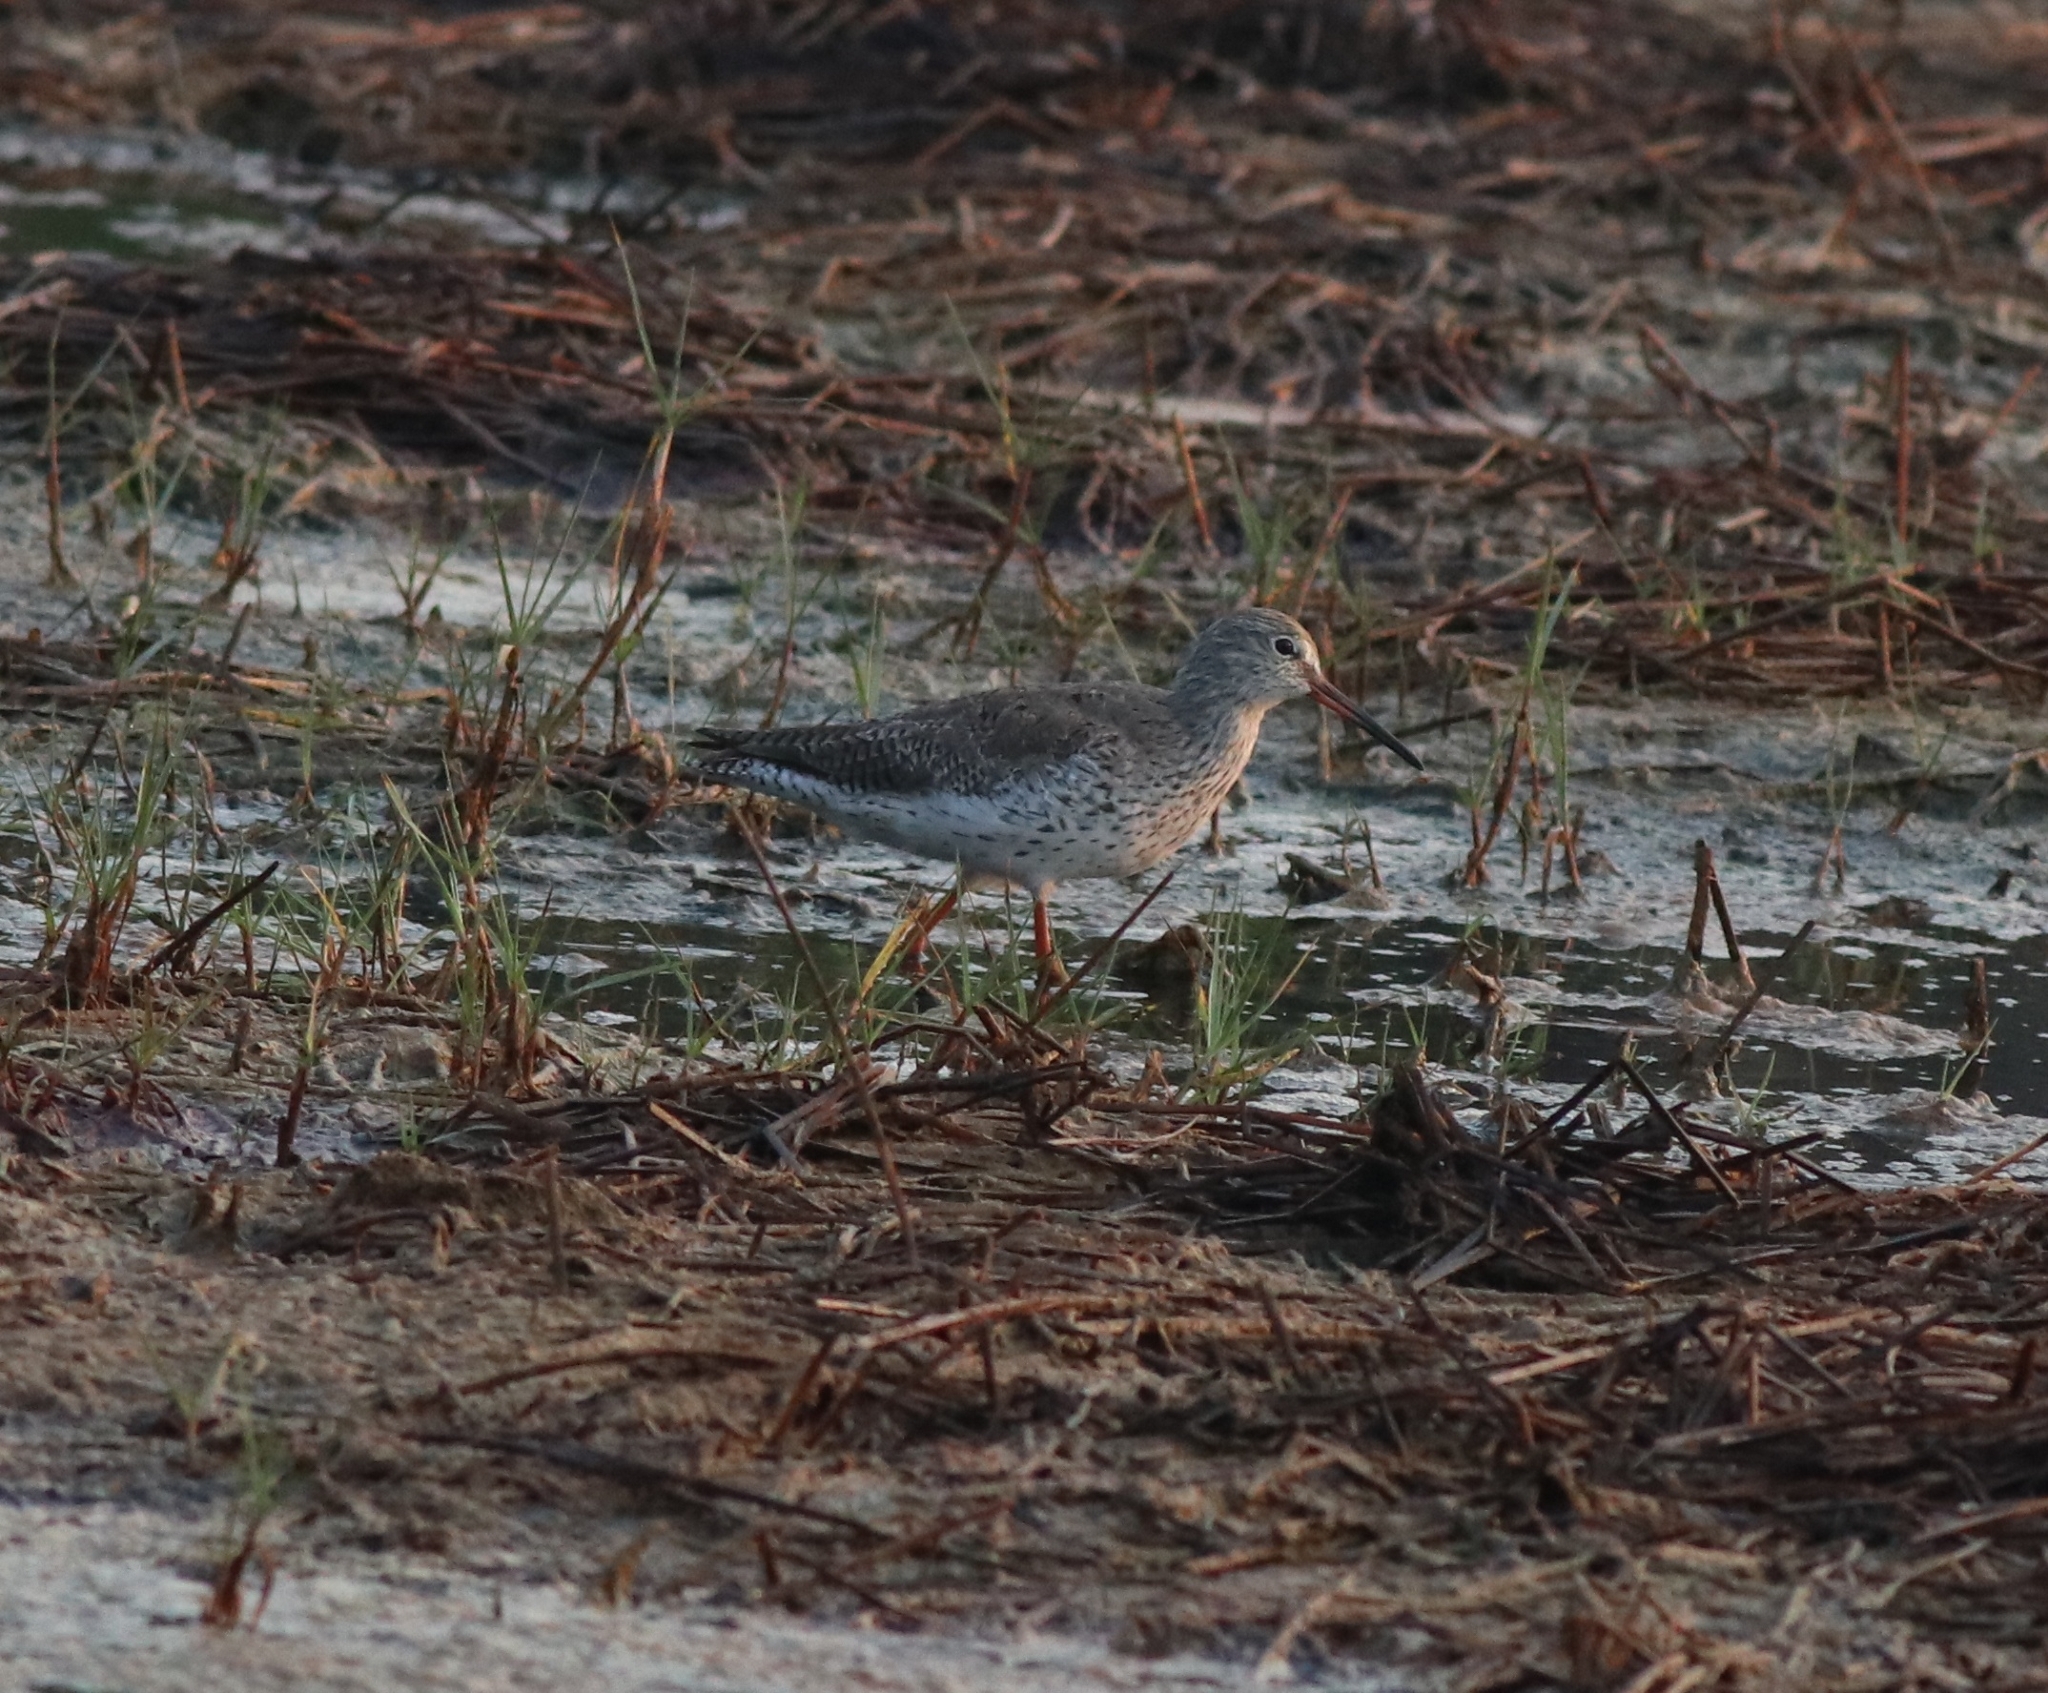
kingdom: Animalia
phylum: Chordata
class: Aves
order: Charadriiformes
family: Scolopacidae
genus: Tringa
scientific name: Tringa totanus
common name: Common redshank
